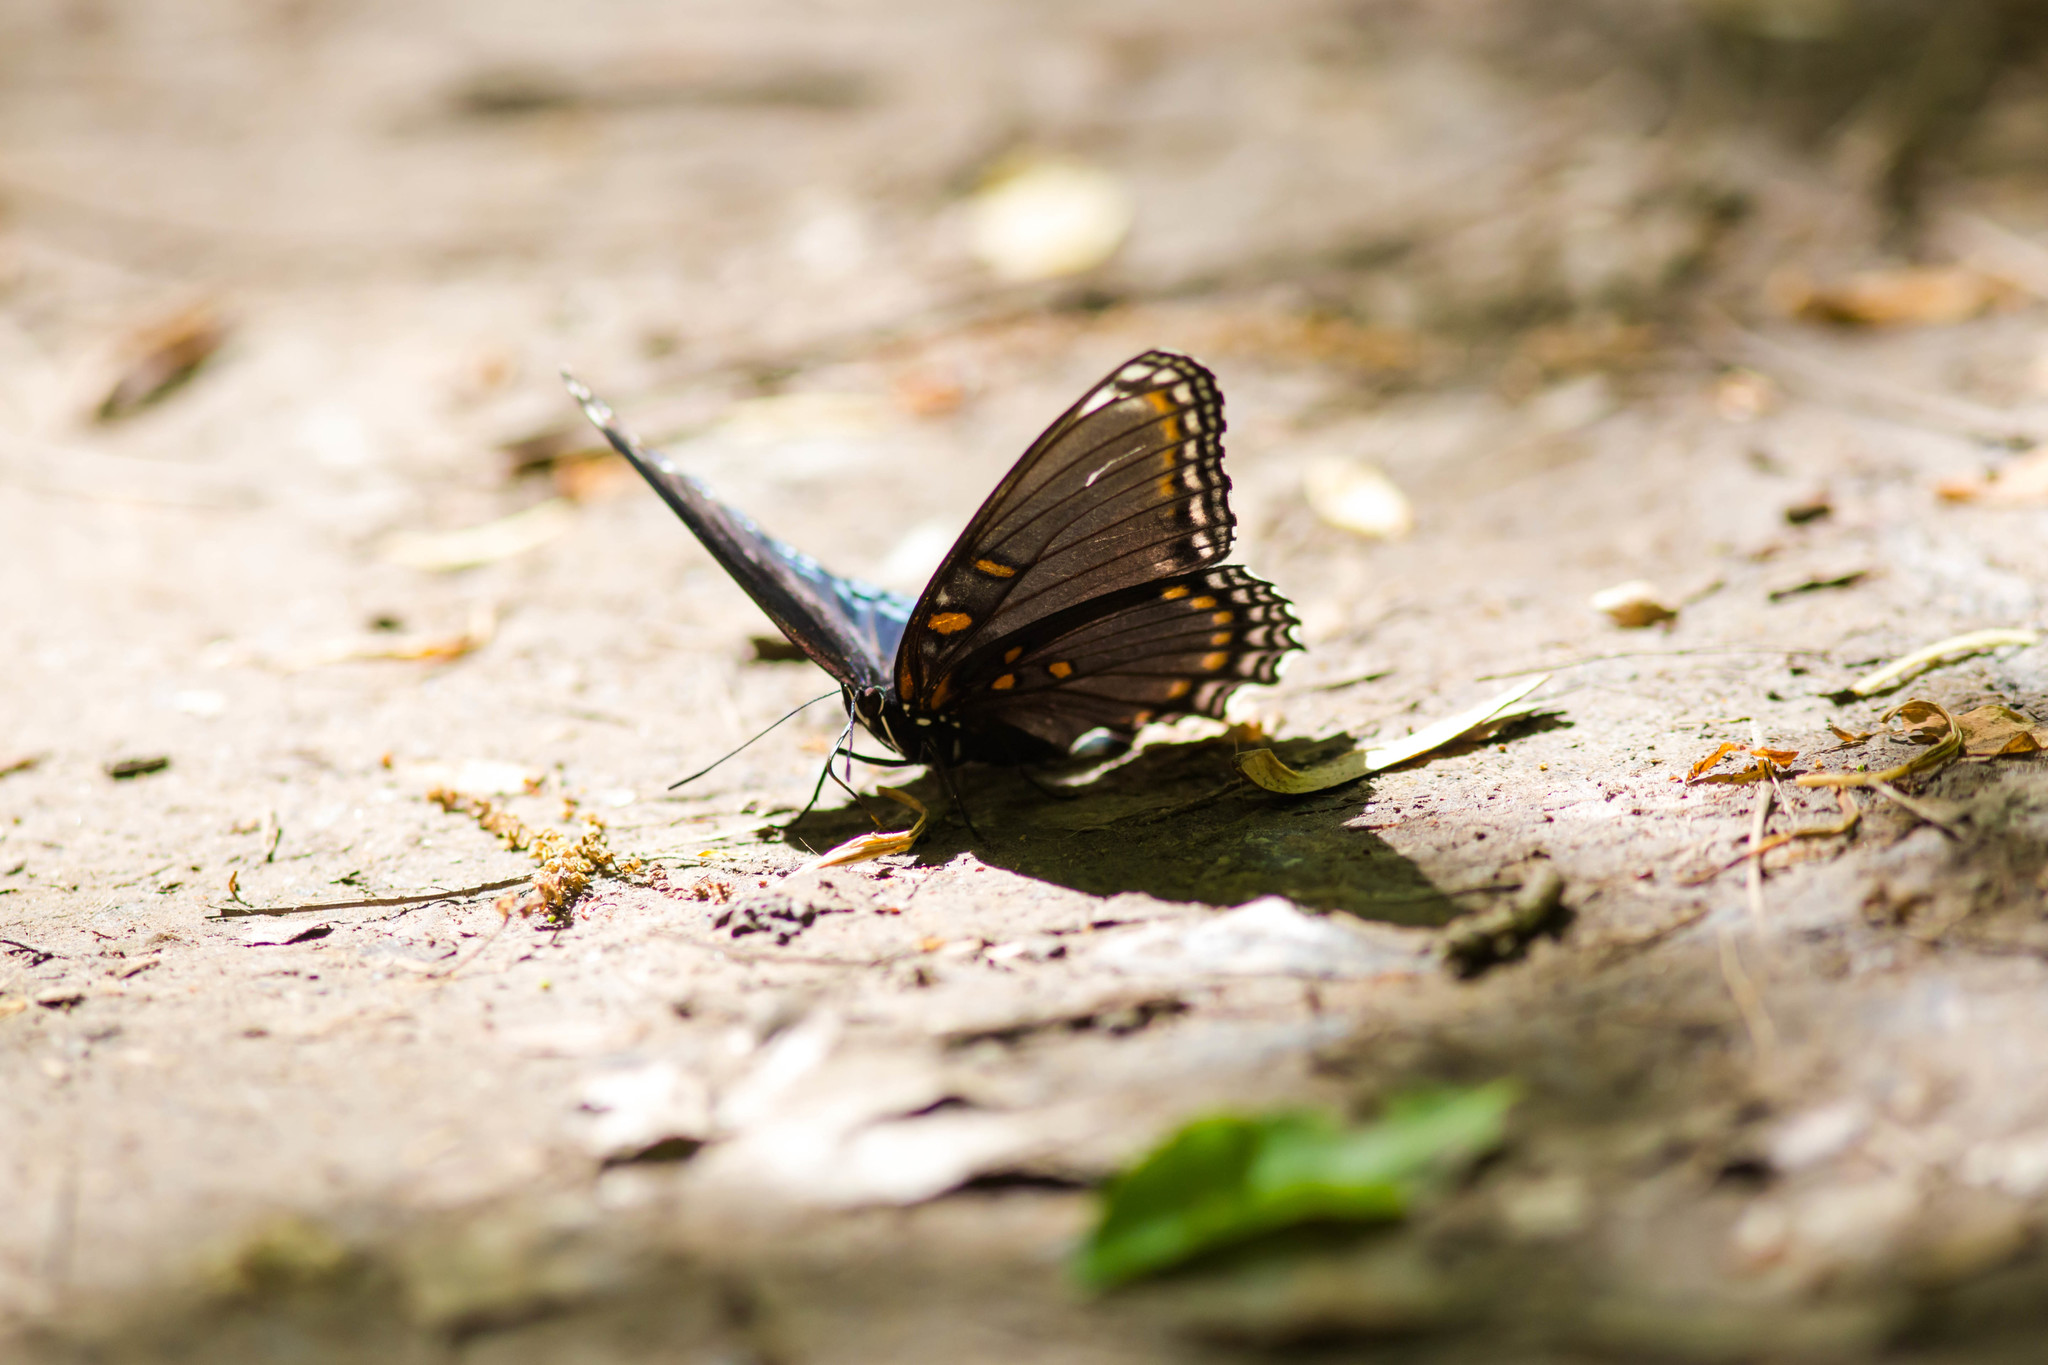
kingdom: Animalia
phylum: Arthropoda
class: Insecta
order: Lepidoptera
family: Nymphalidae
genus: Limenitis
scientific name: Limenitis arthemis
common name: Red-spotted admiral
